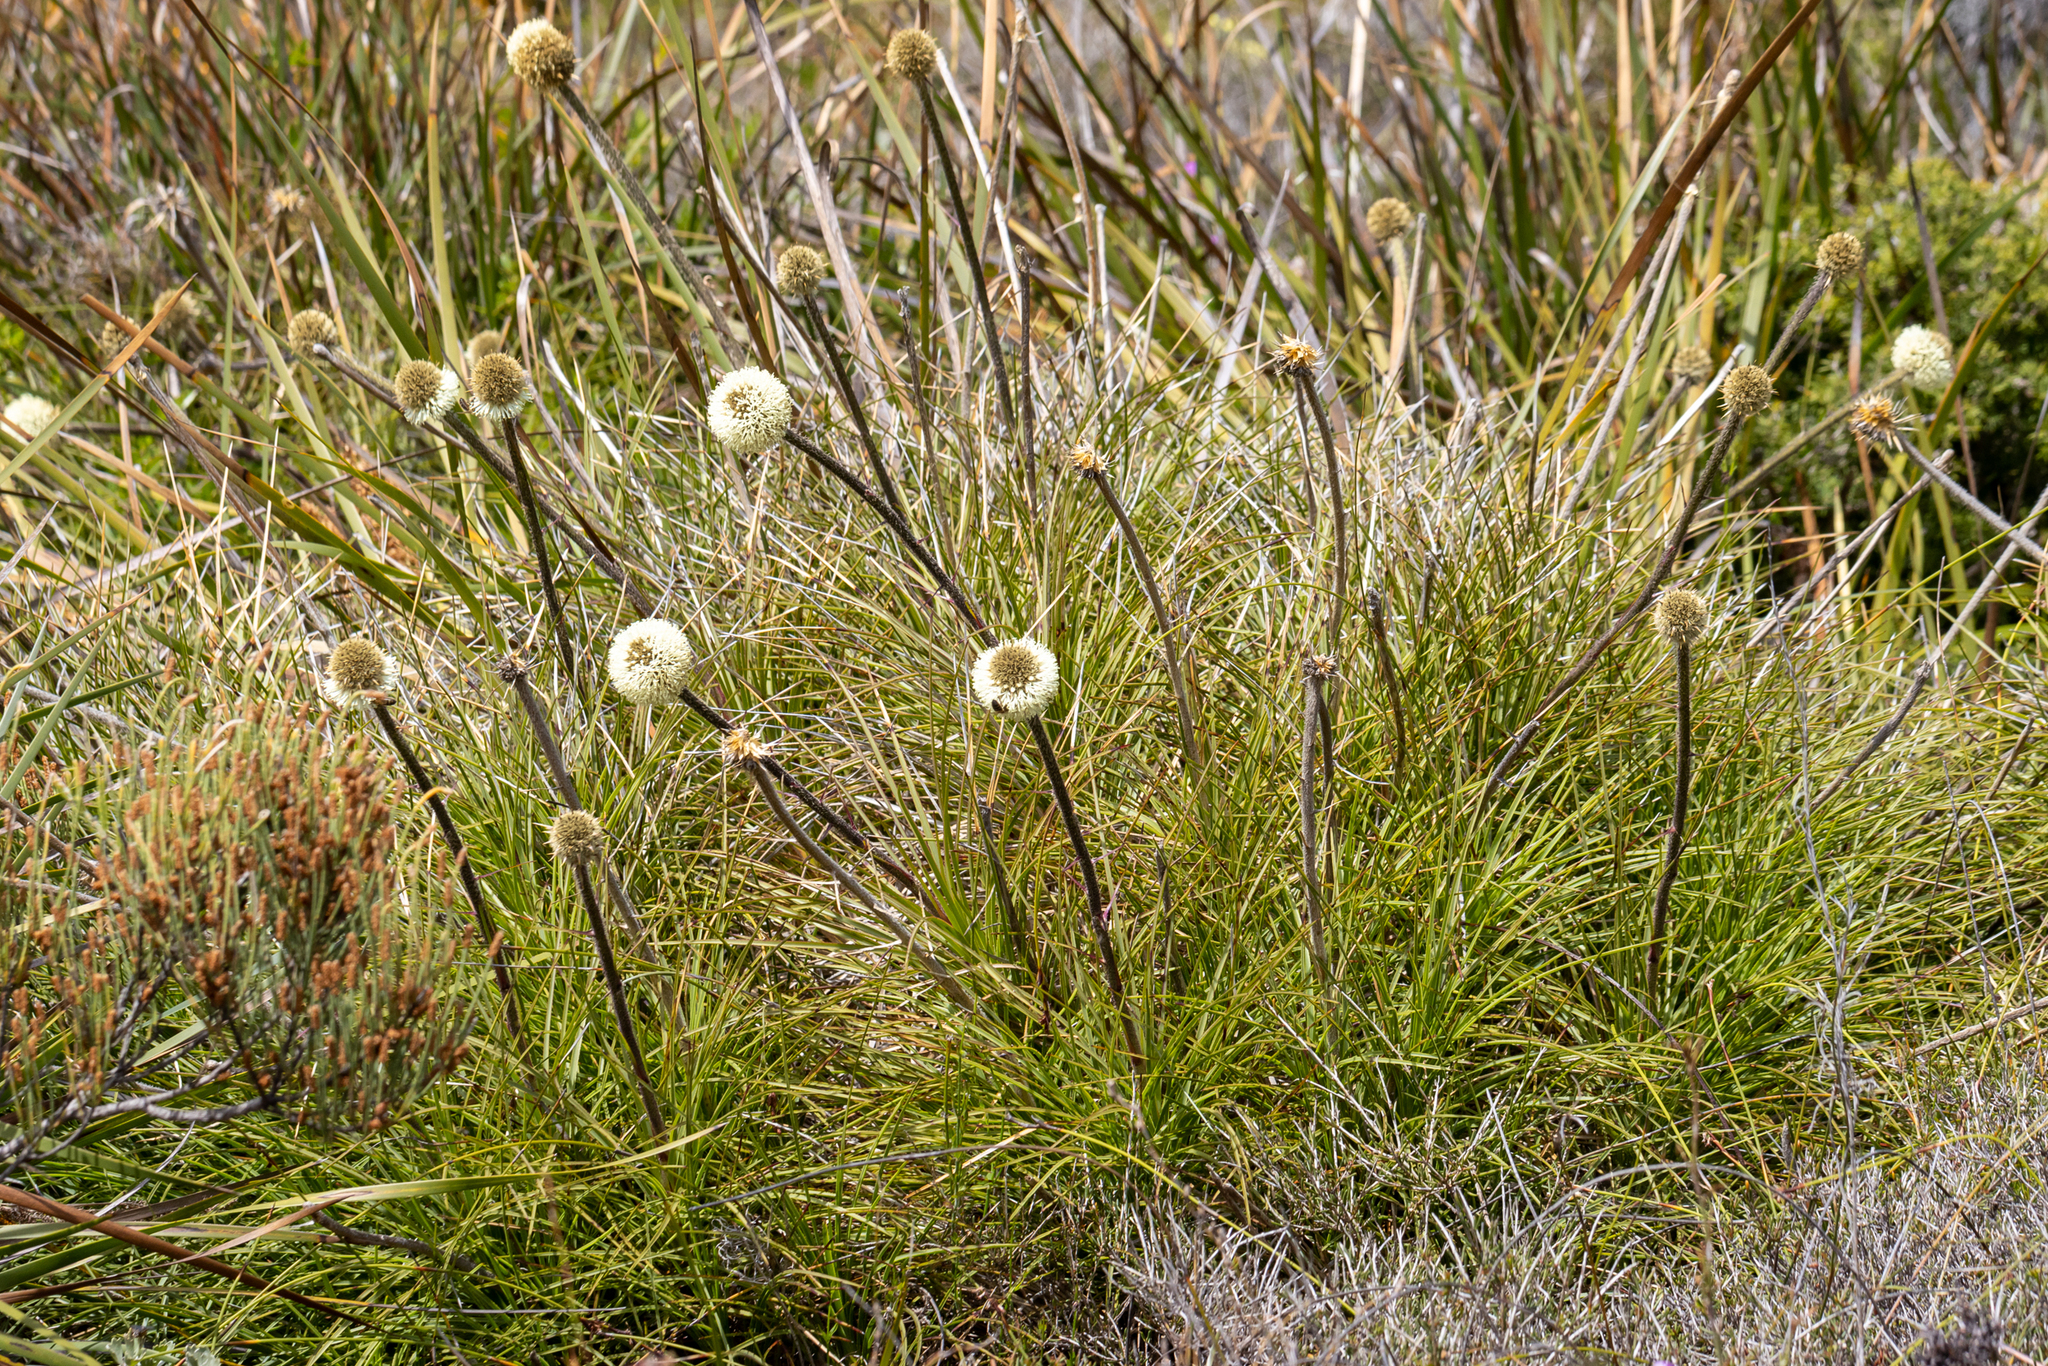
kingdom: Plantae
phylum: Tracheophyta
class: Liliopsida
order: Arecales
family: Dasypogonaceae
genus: Dasypogon
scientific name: Dasypogon bromeliifolius
